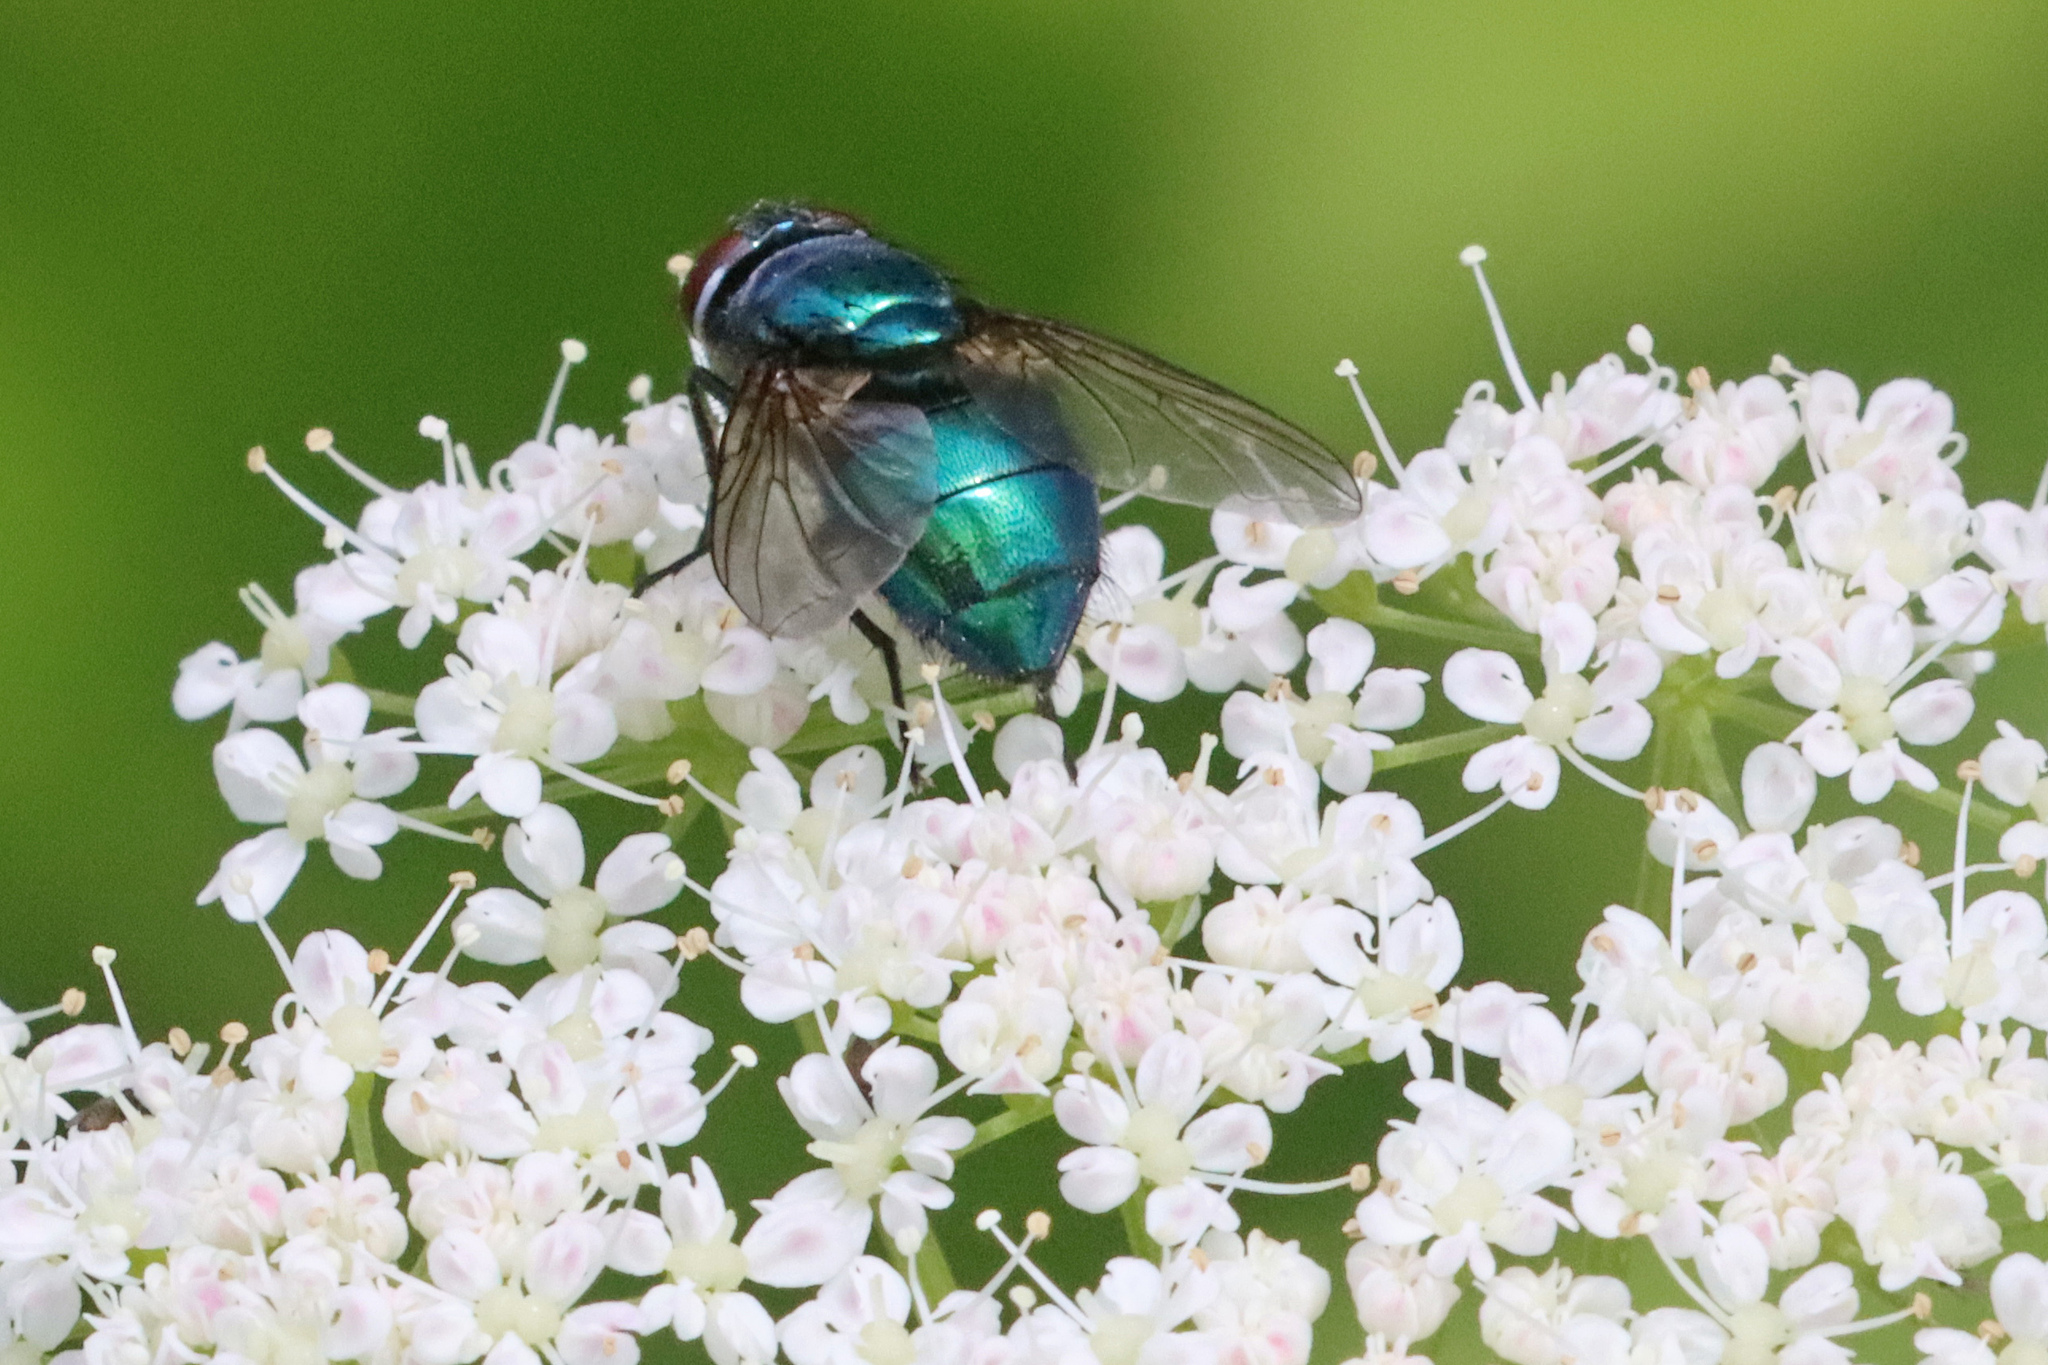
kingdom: Animalia
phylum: Arthropoda
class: Insecta
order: Diptera
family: Calliphoridae
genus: Lucilia
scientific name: Lucilia
